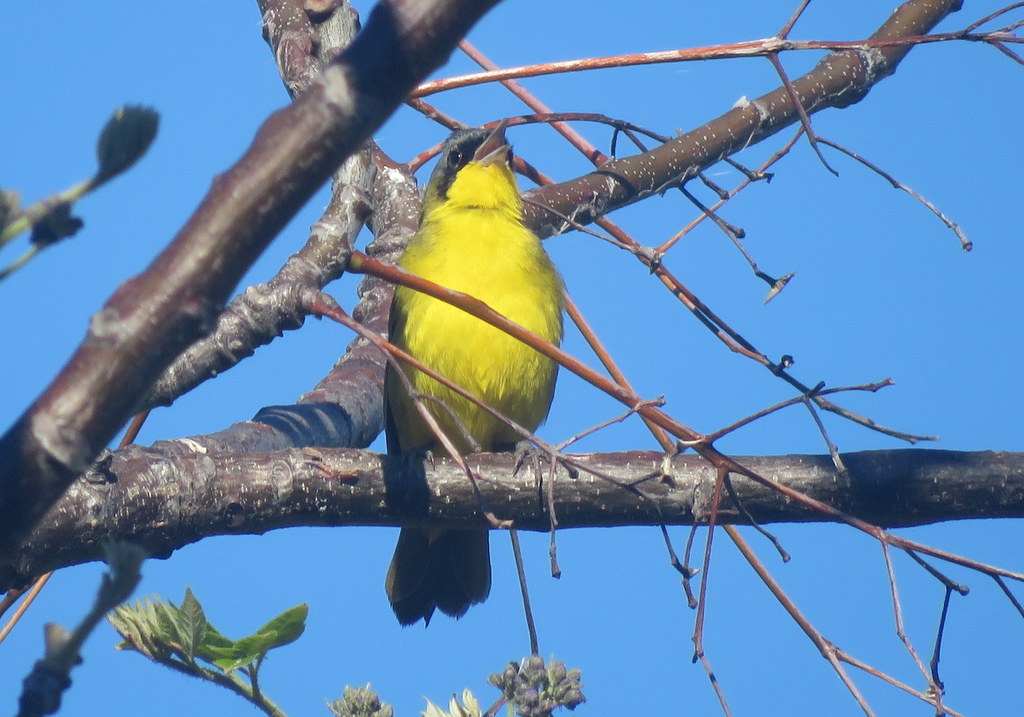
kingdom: Animalia
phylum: Chordata
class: Aves
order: Passeriformes
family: Parulidae
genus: Geothlypis
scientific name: Geothlypis velata
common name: Southern yellowthroat
